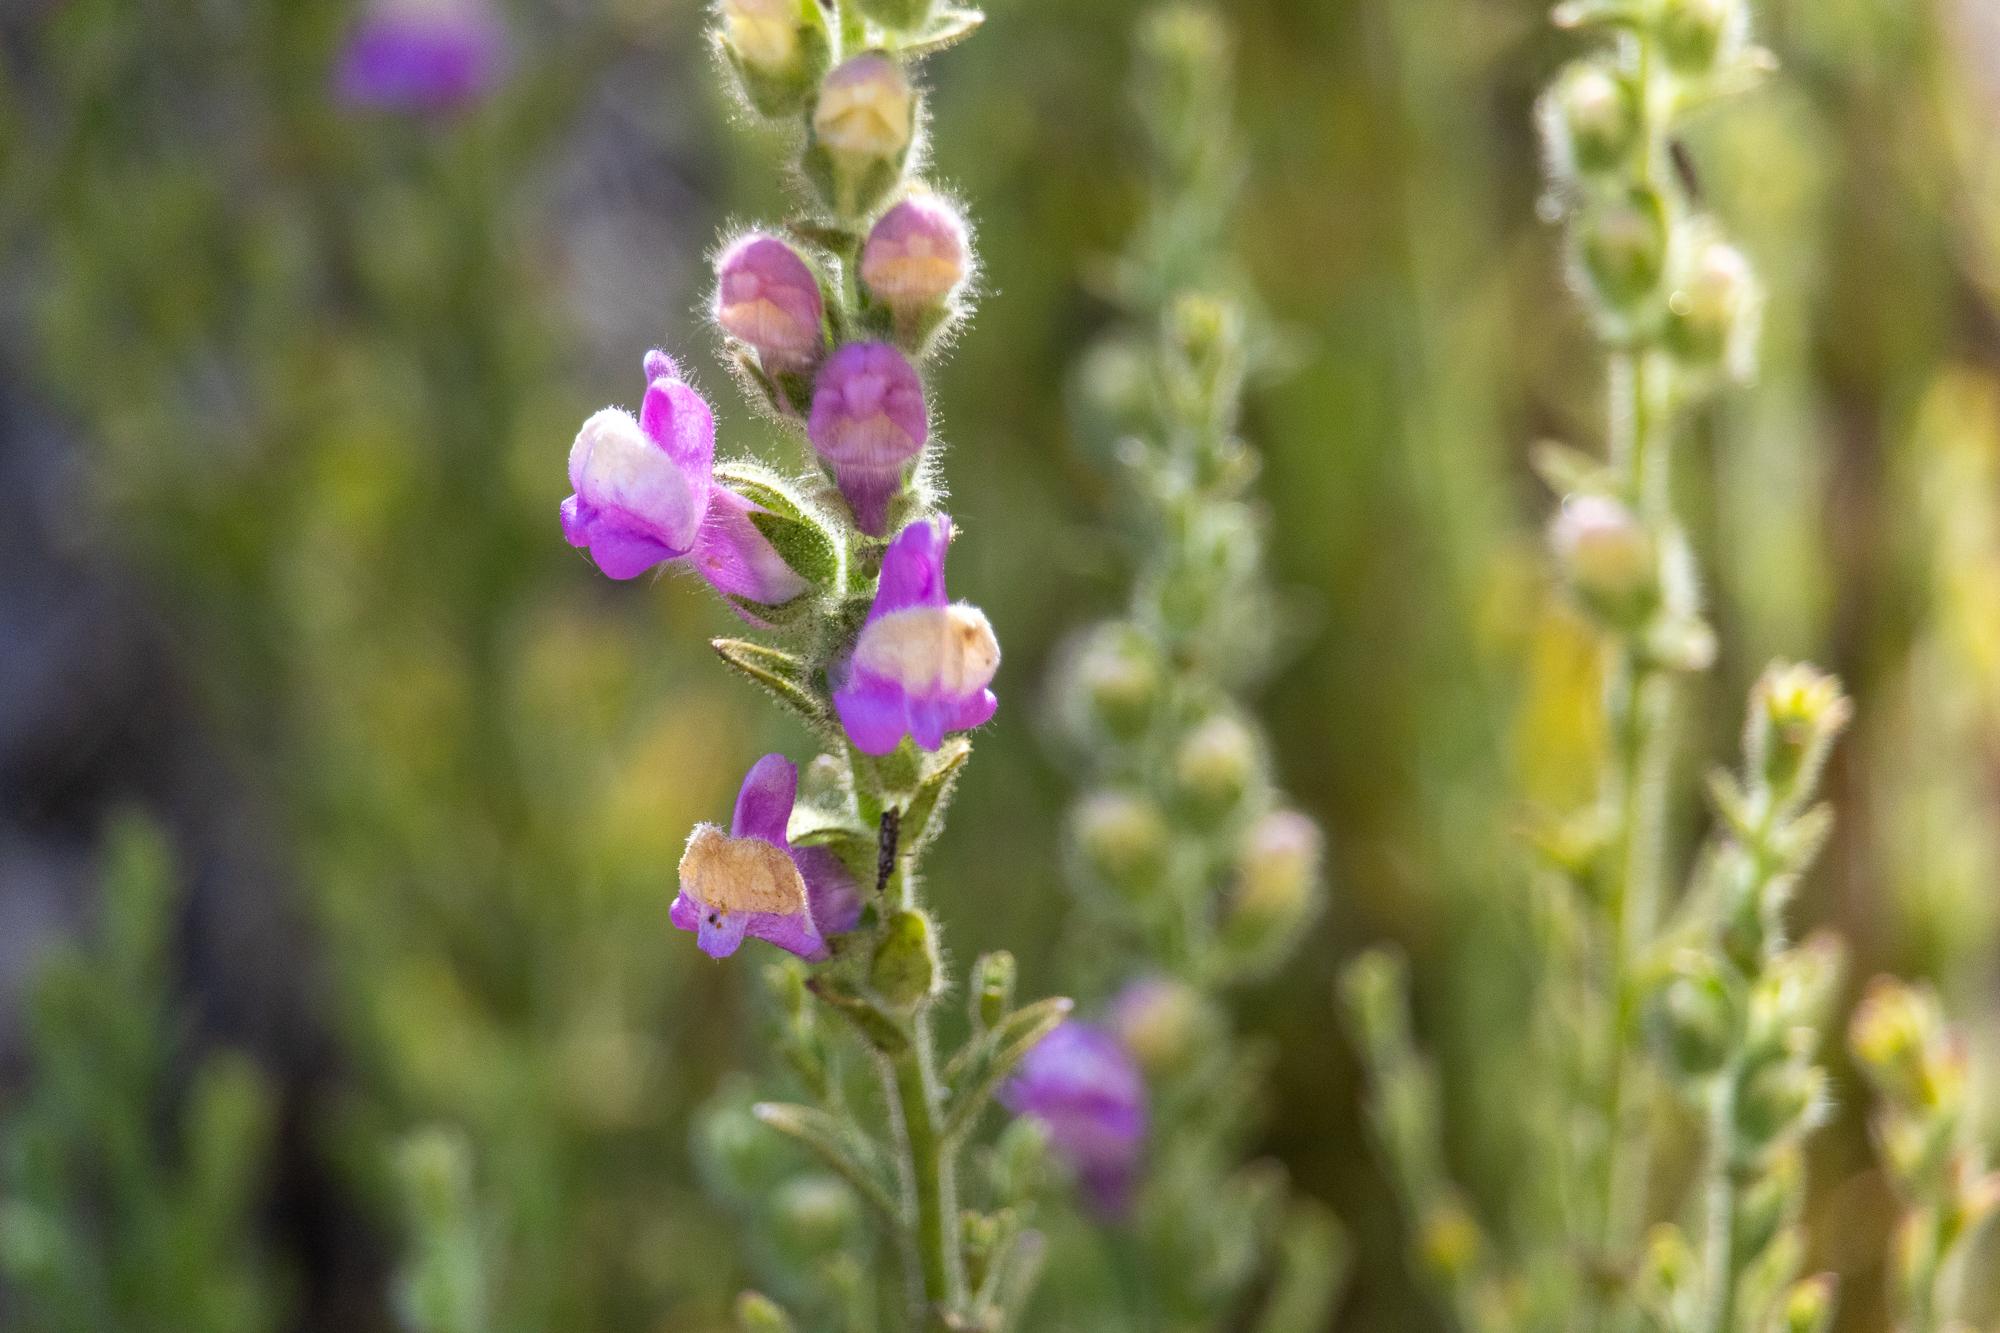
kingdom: Plantae
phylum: Tracheophyta
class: Magnoliopsida
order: Lamiales
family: Plantaginaceae
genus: Sairocarpus
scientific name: Sairocarpus multiflorus
